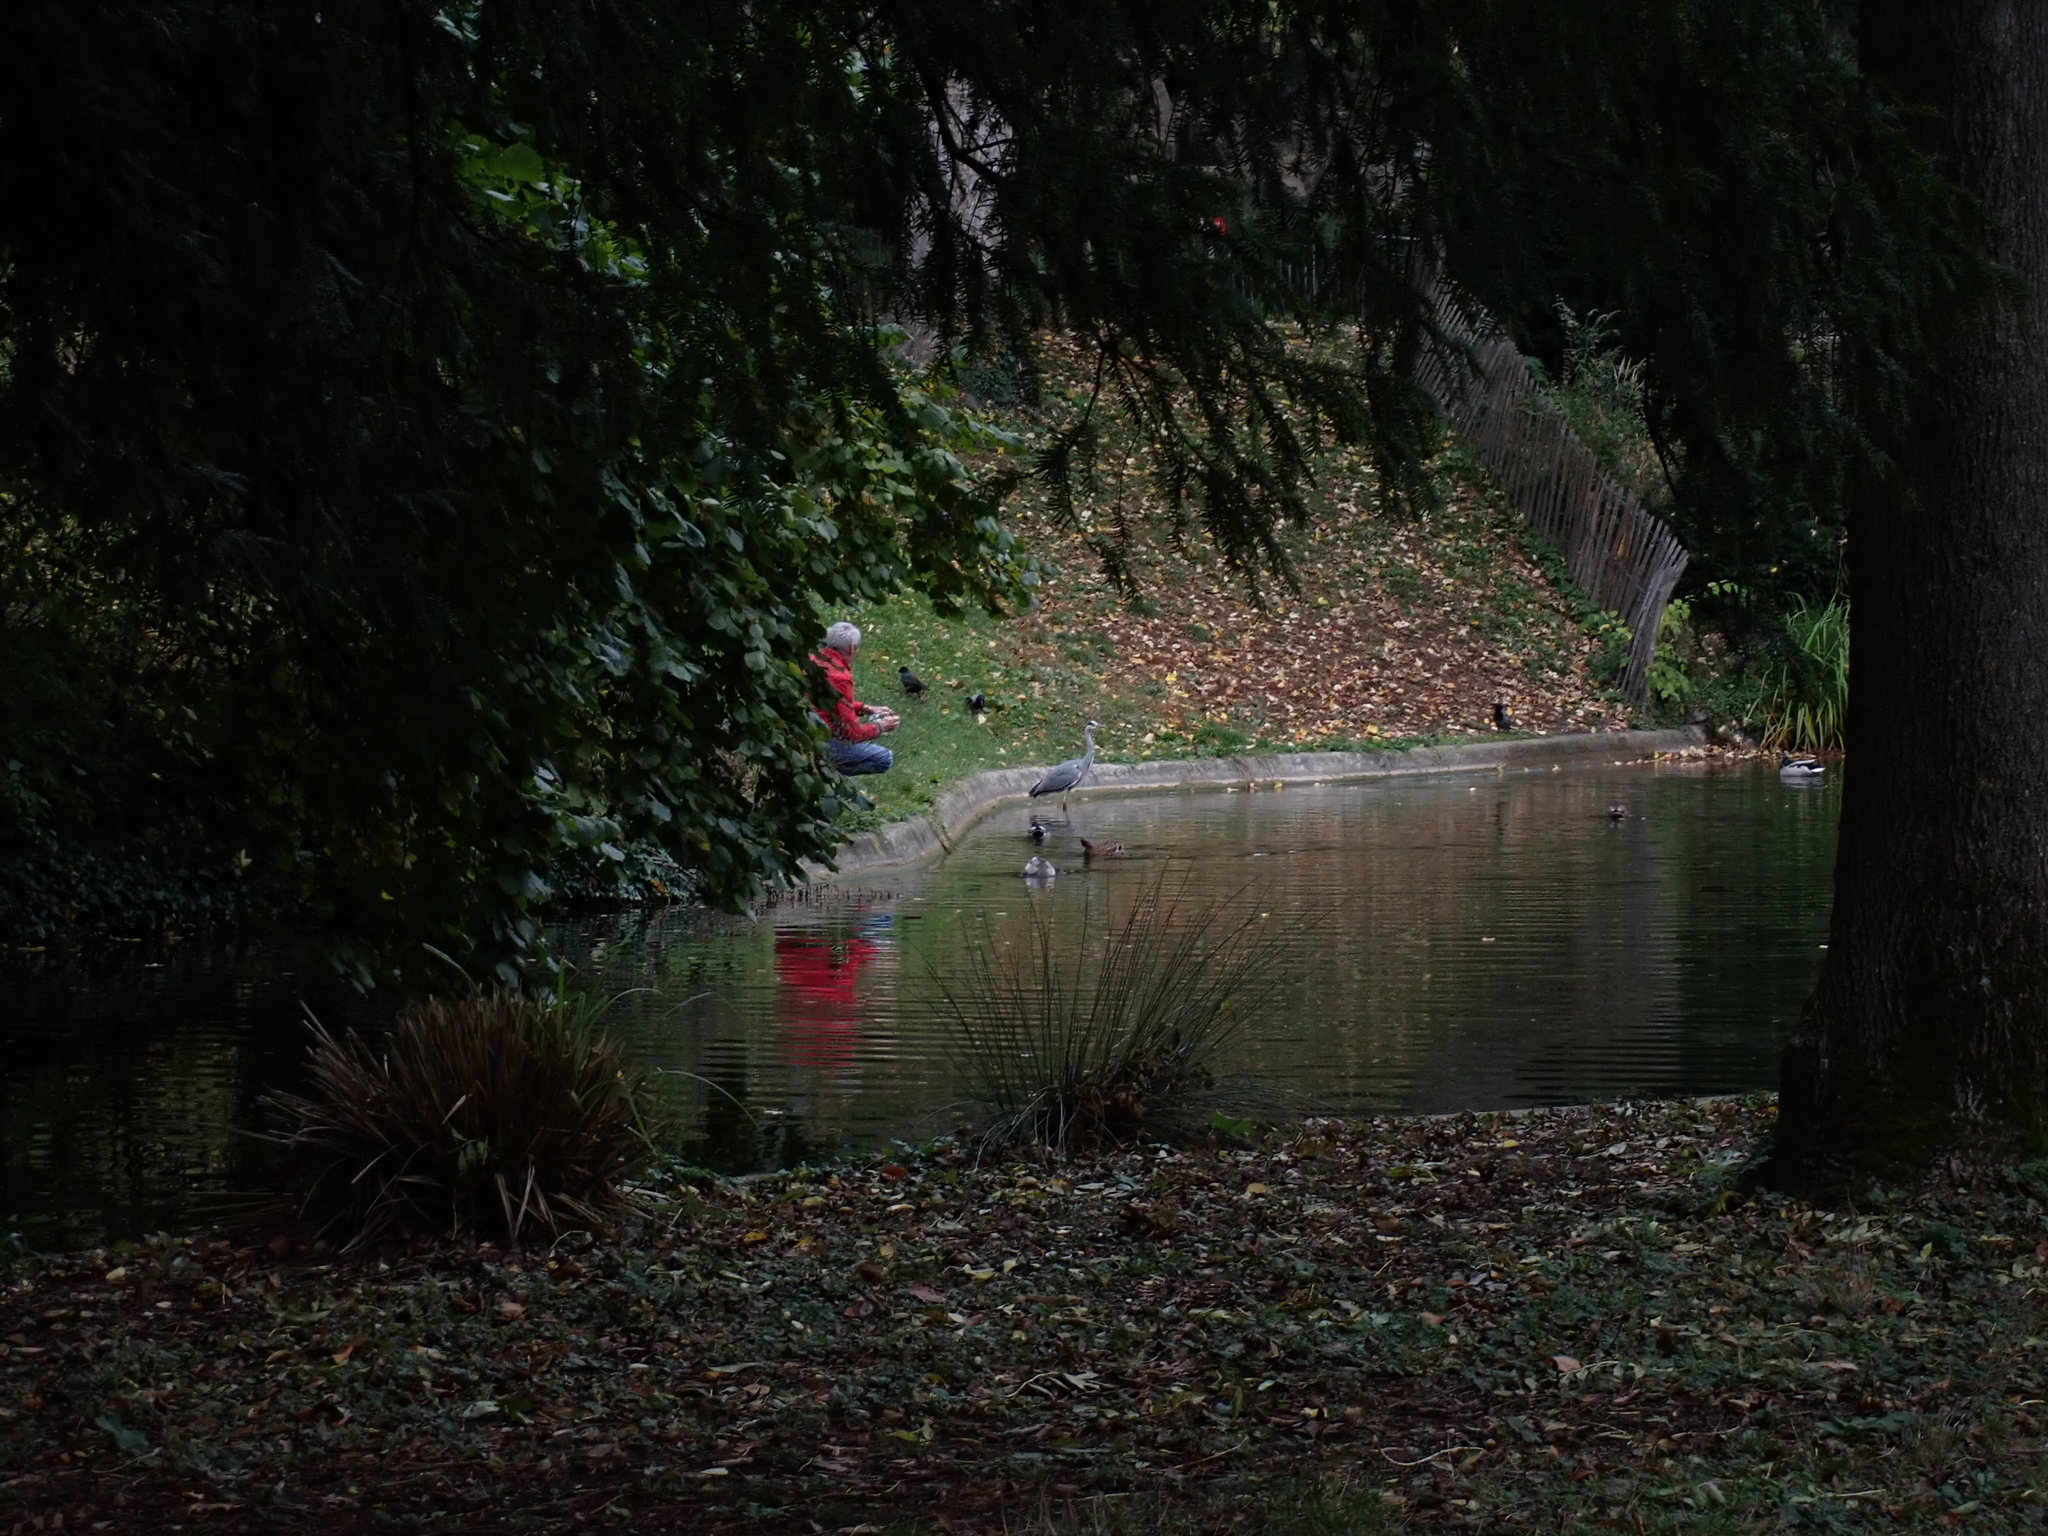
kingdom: Animalia
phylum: Chordata
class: Aves
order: Pelecaniformes
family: Ardeidae
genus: Ardea
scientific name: Ardea cinerea
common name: Grey heron
